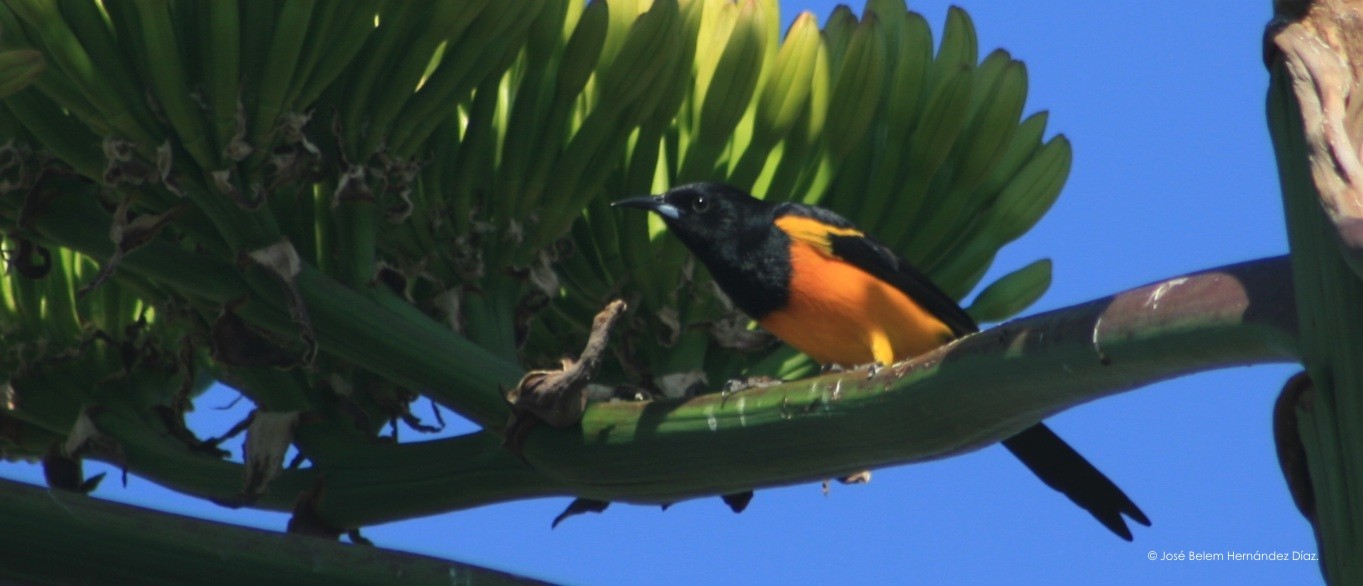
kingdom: Animalia
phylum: Chordata
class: Aves
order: Passeriformes
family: Icteridae
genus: Icterus
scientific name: Icterus wagleri
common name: Black-vented oriole
